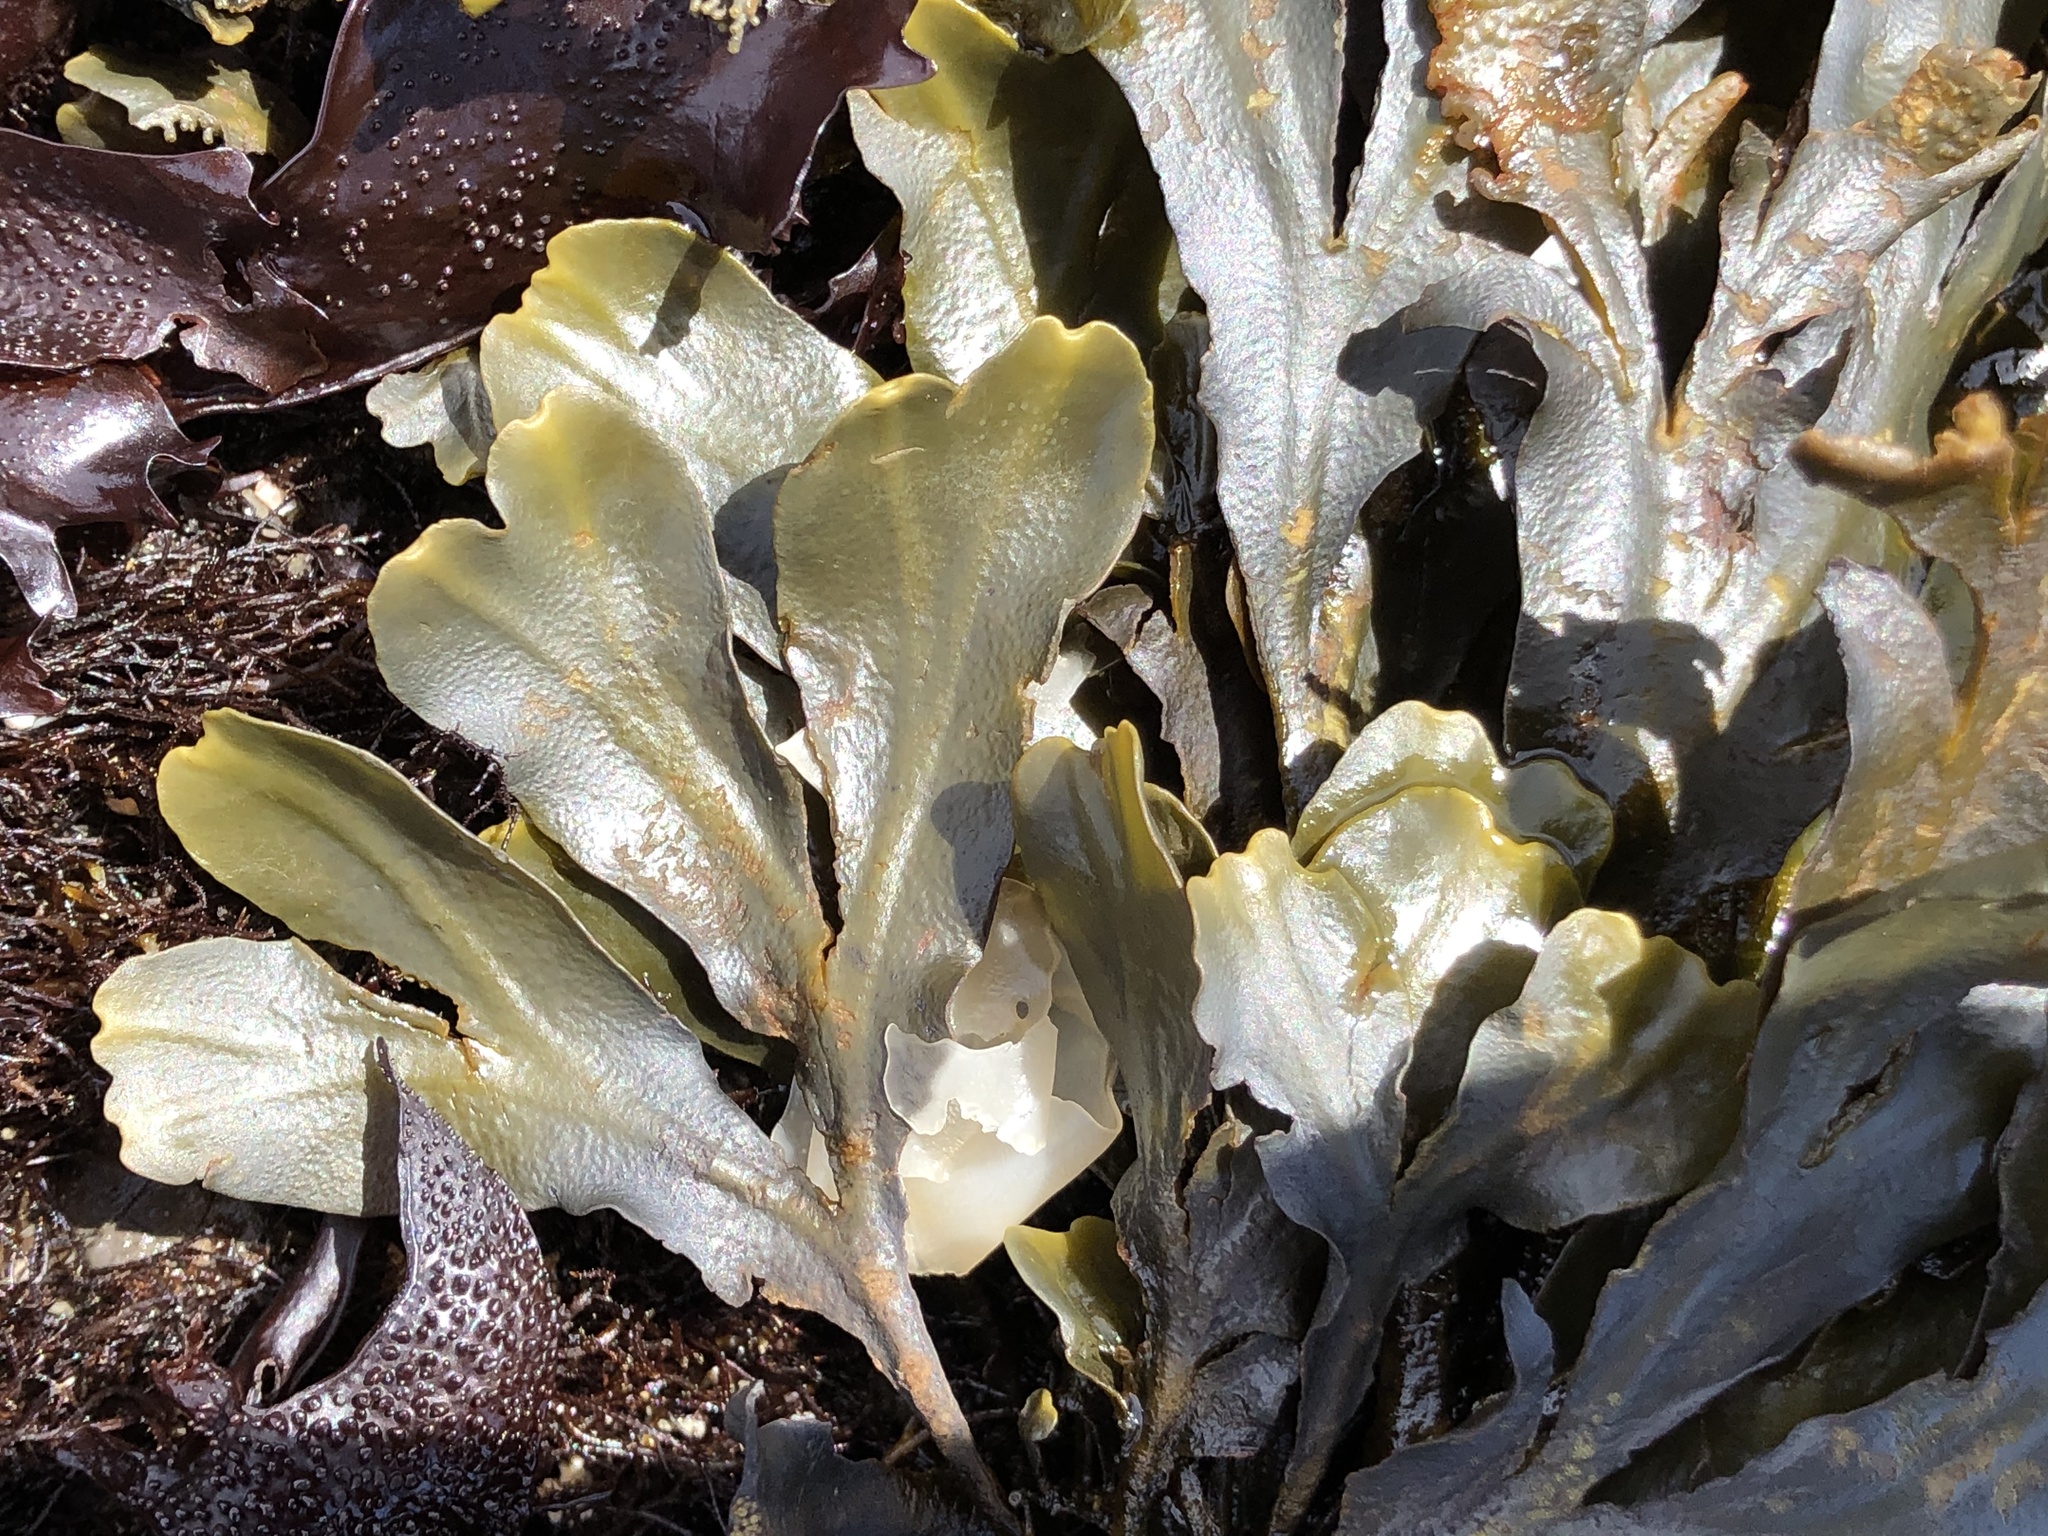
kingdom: Chromista
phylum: Ochrophyta
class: Phaeophyceae
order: Fucales
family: Fucaceae
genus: Fucus
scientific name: Fucus distichus
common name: Rockweed
